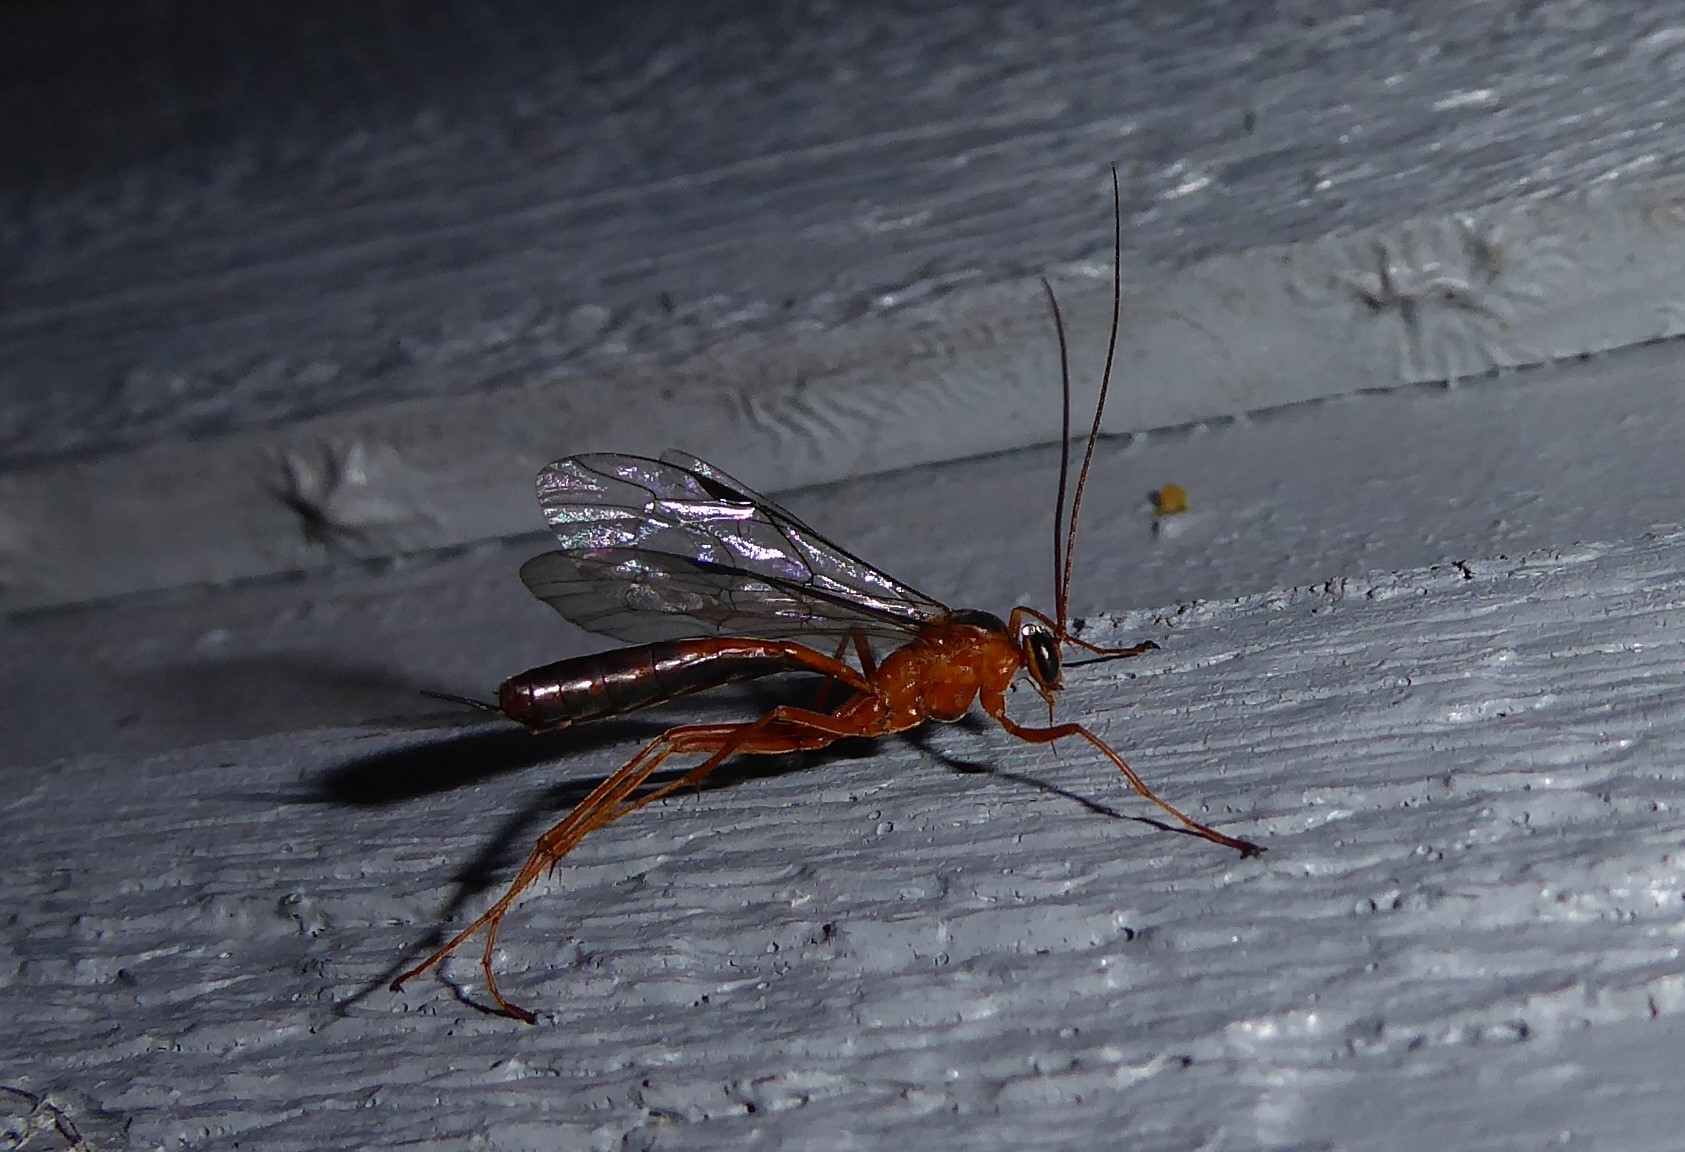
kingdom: Animalia
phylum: Arthropoda
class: Insecta
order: Hymenoptera
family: Ichneumonidae
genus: Netelia
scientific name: Netelia ephippiata
